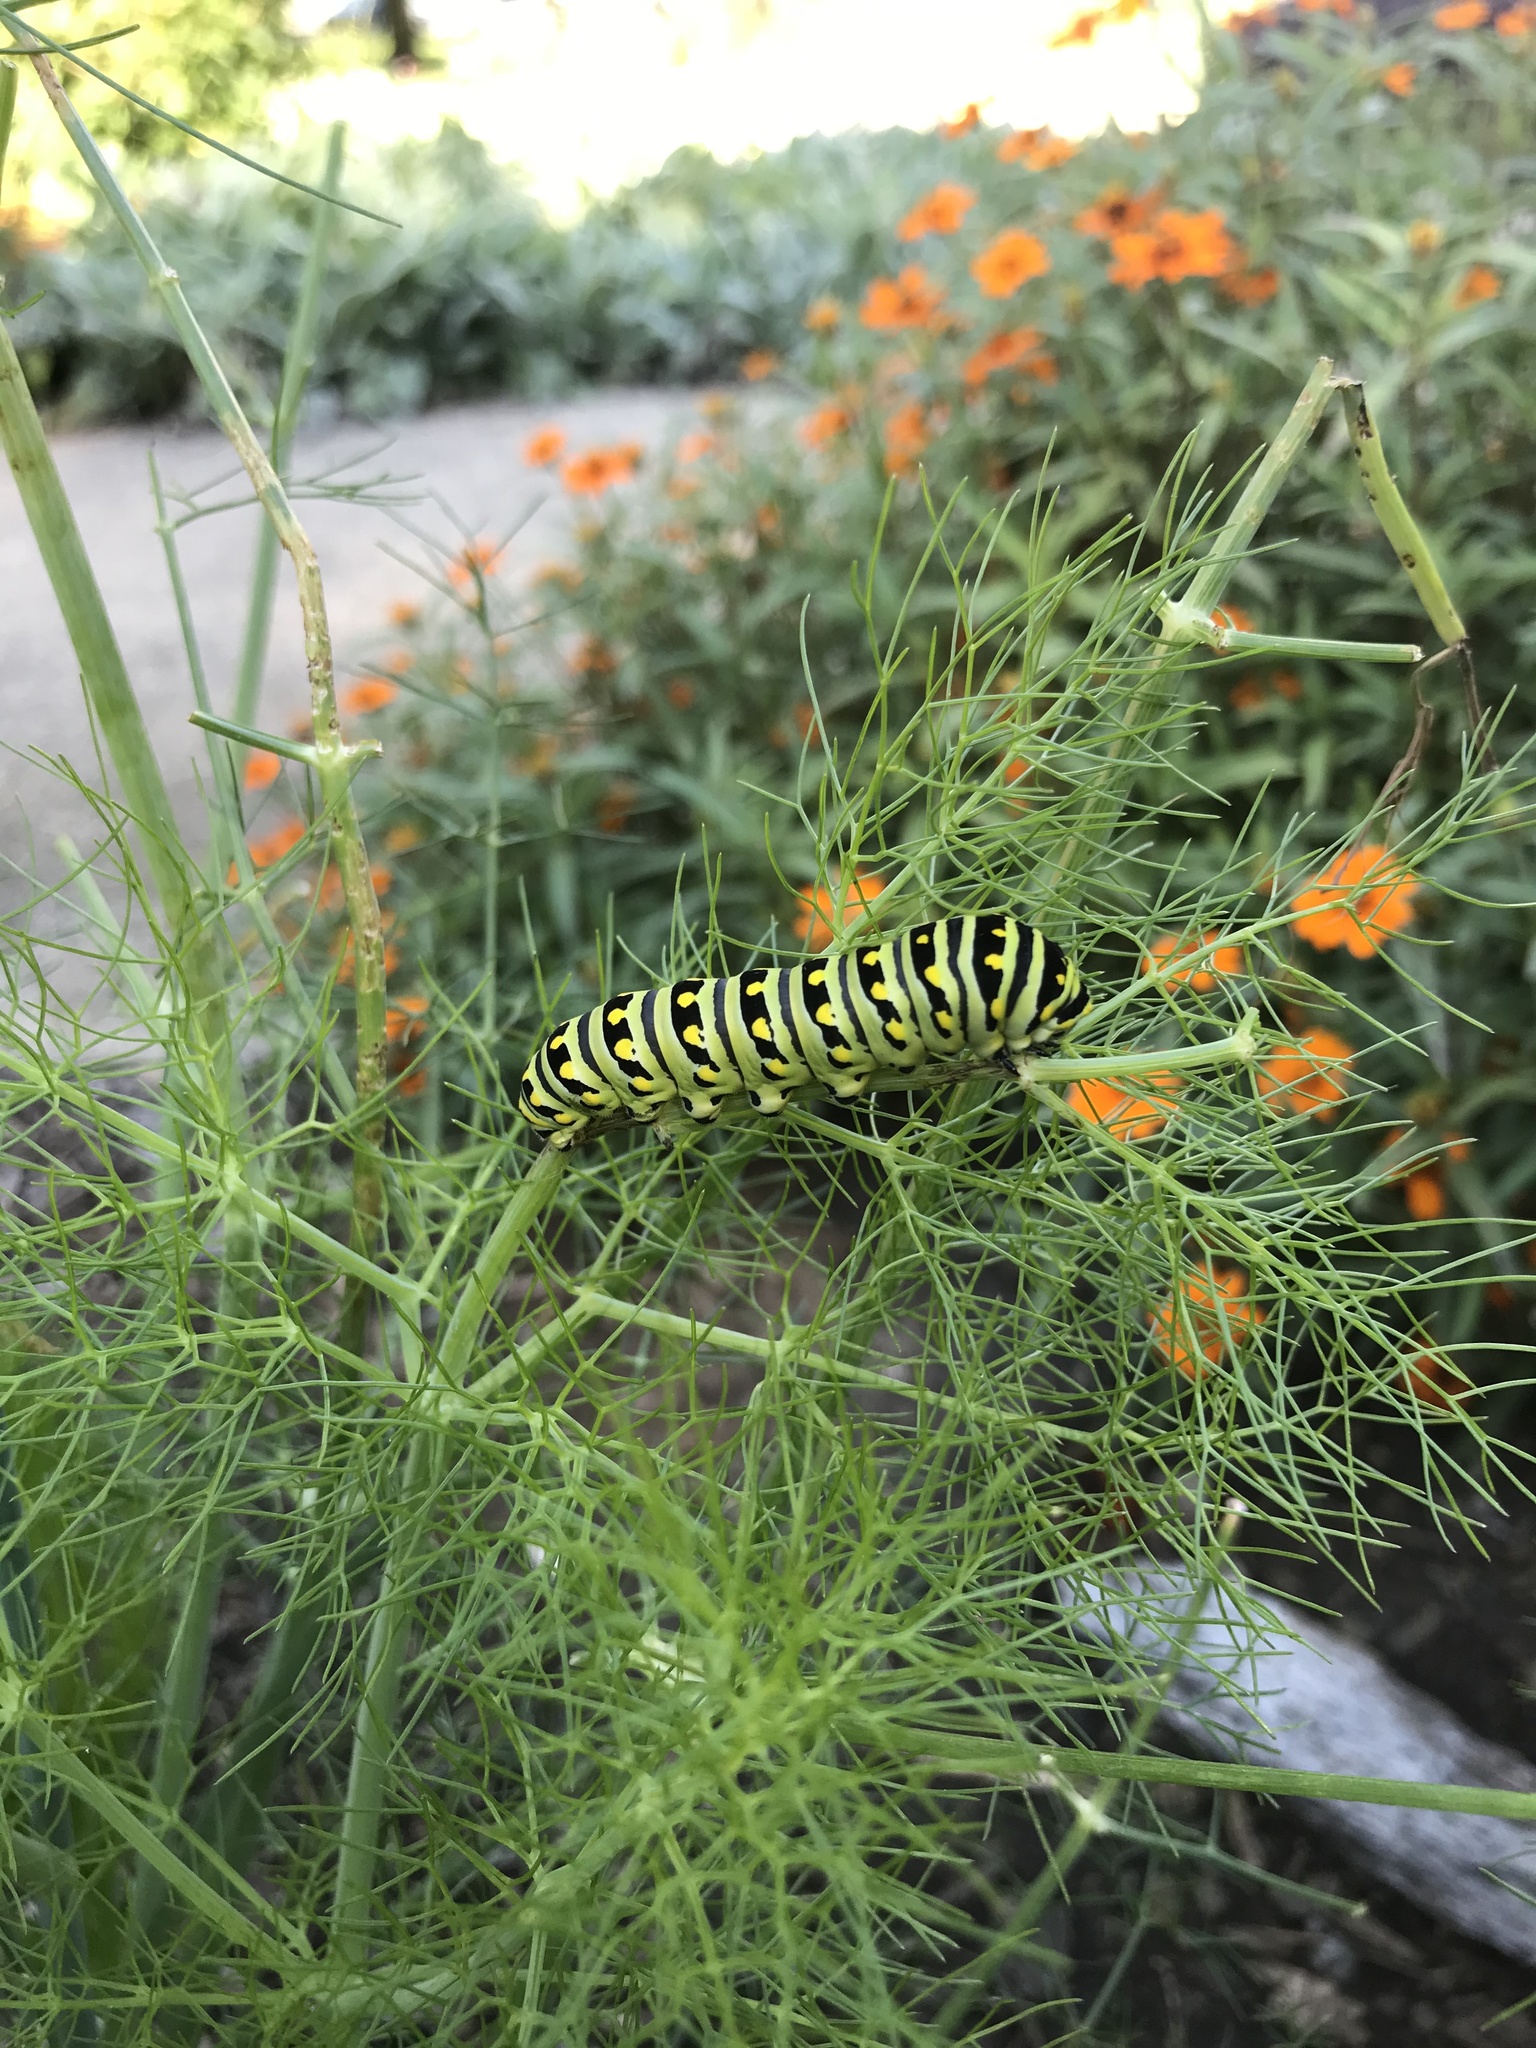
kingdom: Animalia
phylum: Arthropoda
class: Insecta
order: Lepidoptera
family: Papilionidae
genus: Papilio
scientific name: Papilio polyxenes
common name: Black swallowtail
